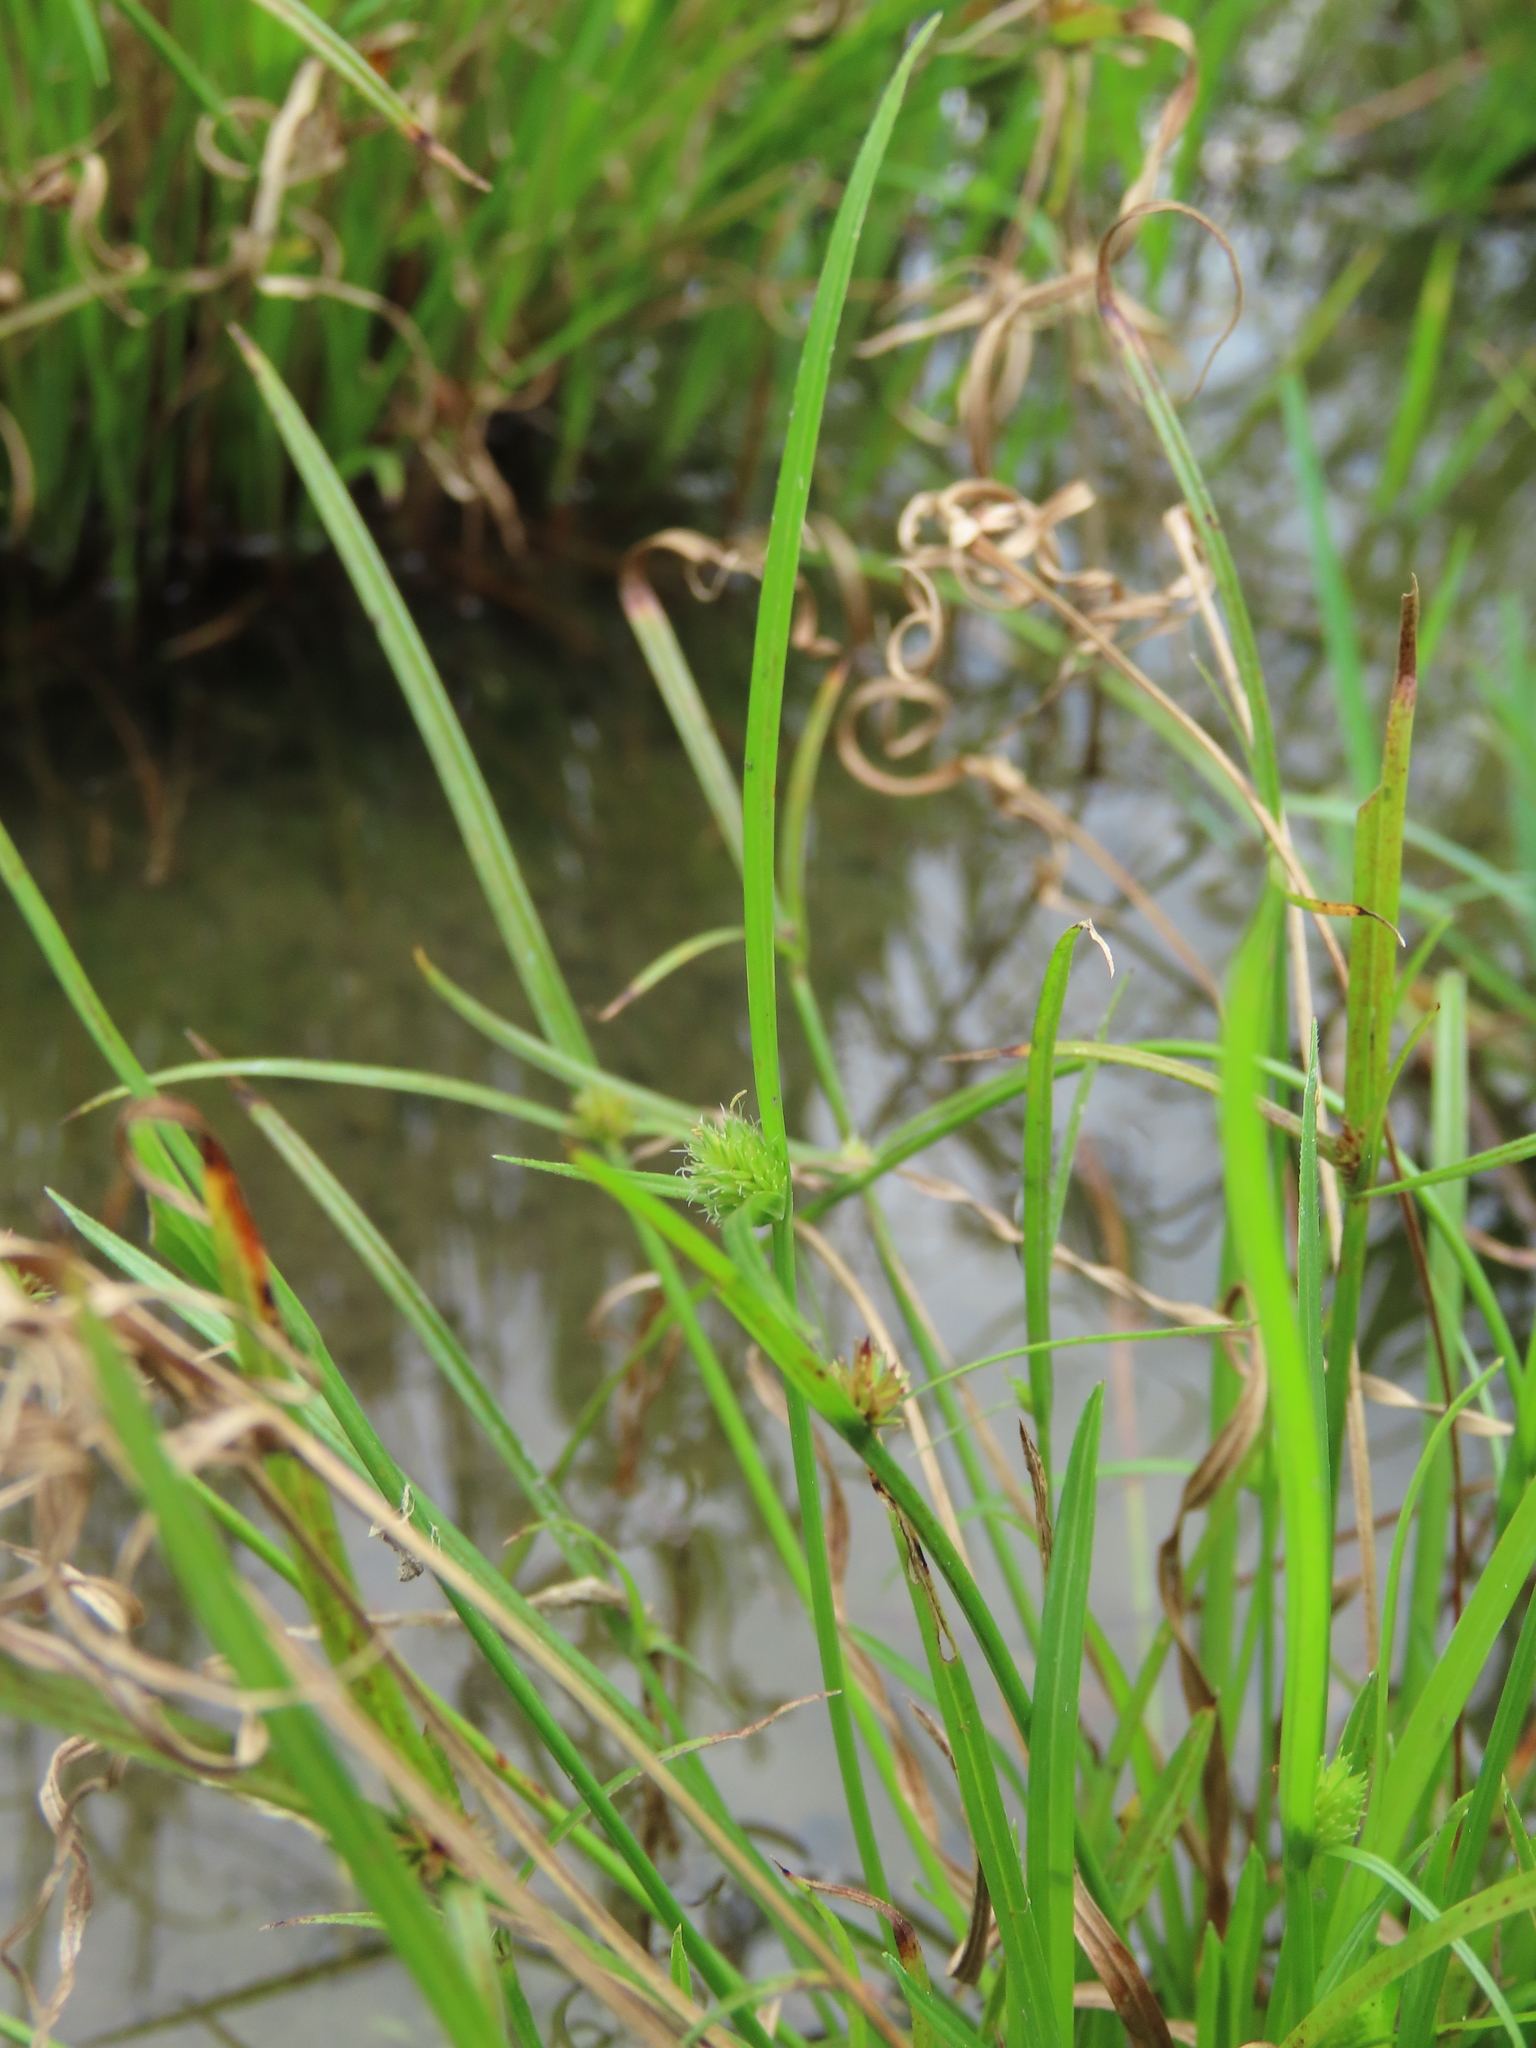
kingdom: Plantae
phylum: Tracheophyta
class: Liliopsida
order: Poales
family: Cyperaceae
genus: Cyperus
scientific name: Cyperus brevifolius
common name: Globe kyllinga
